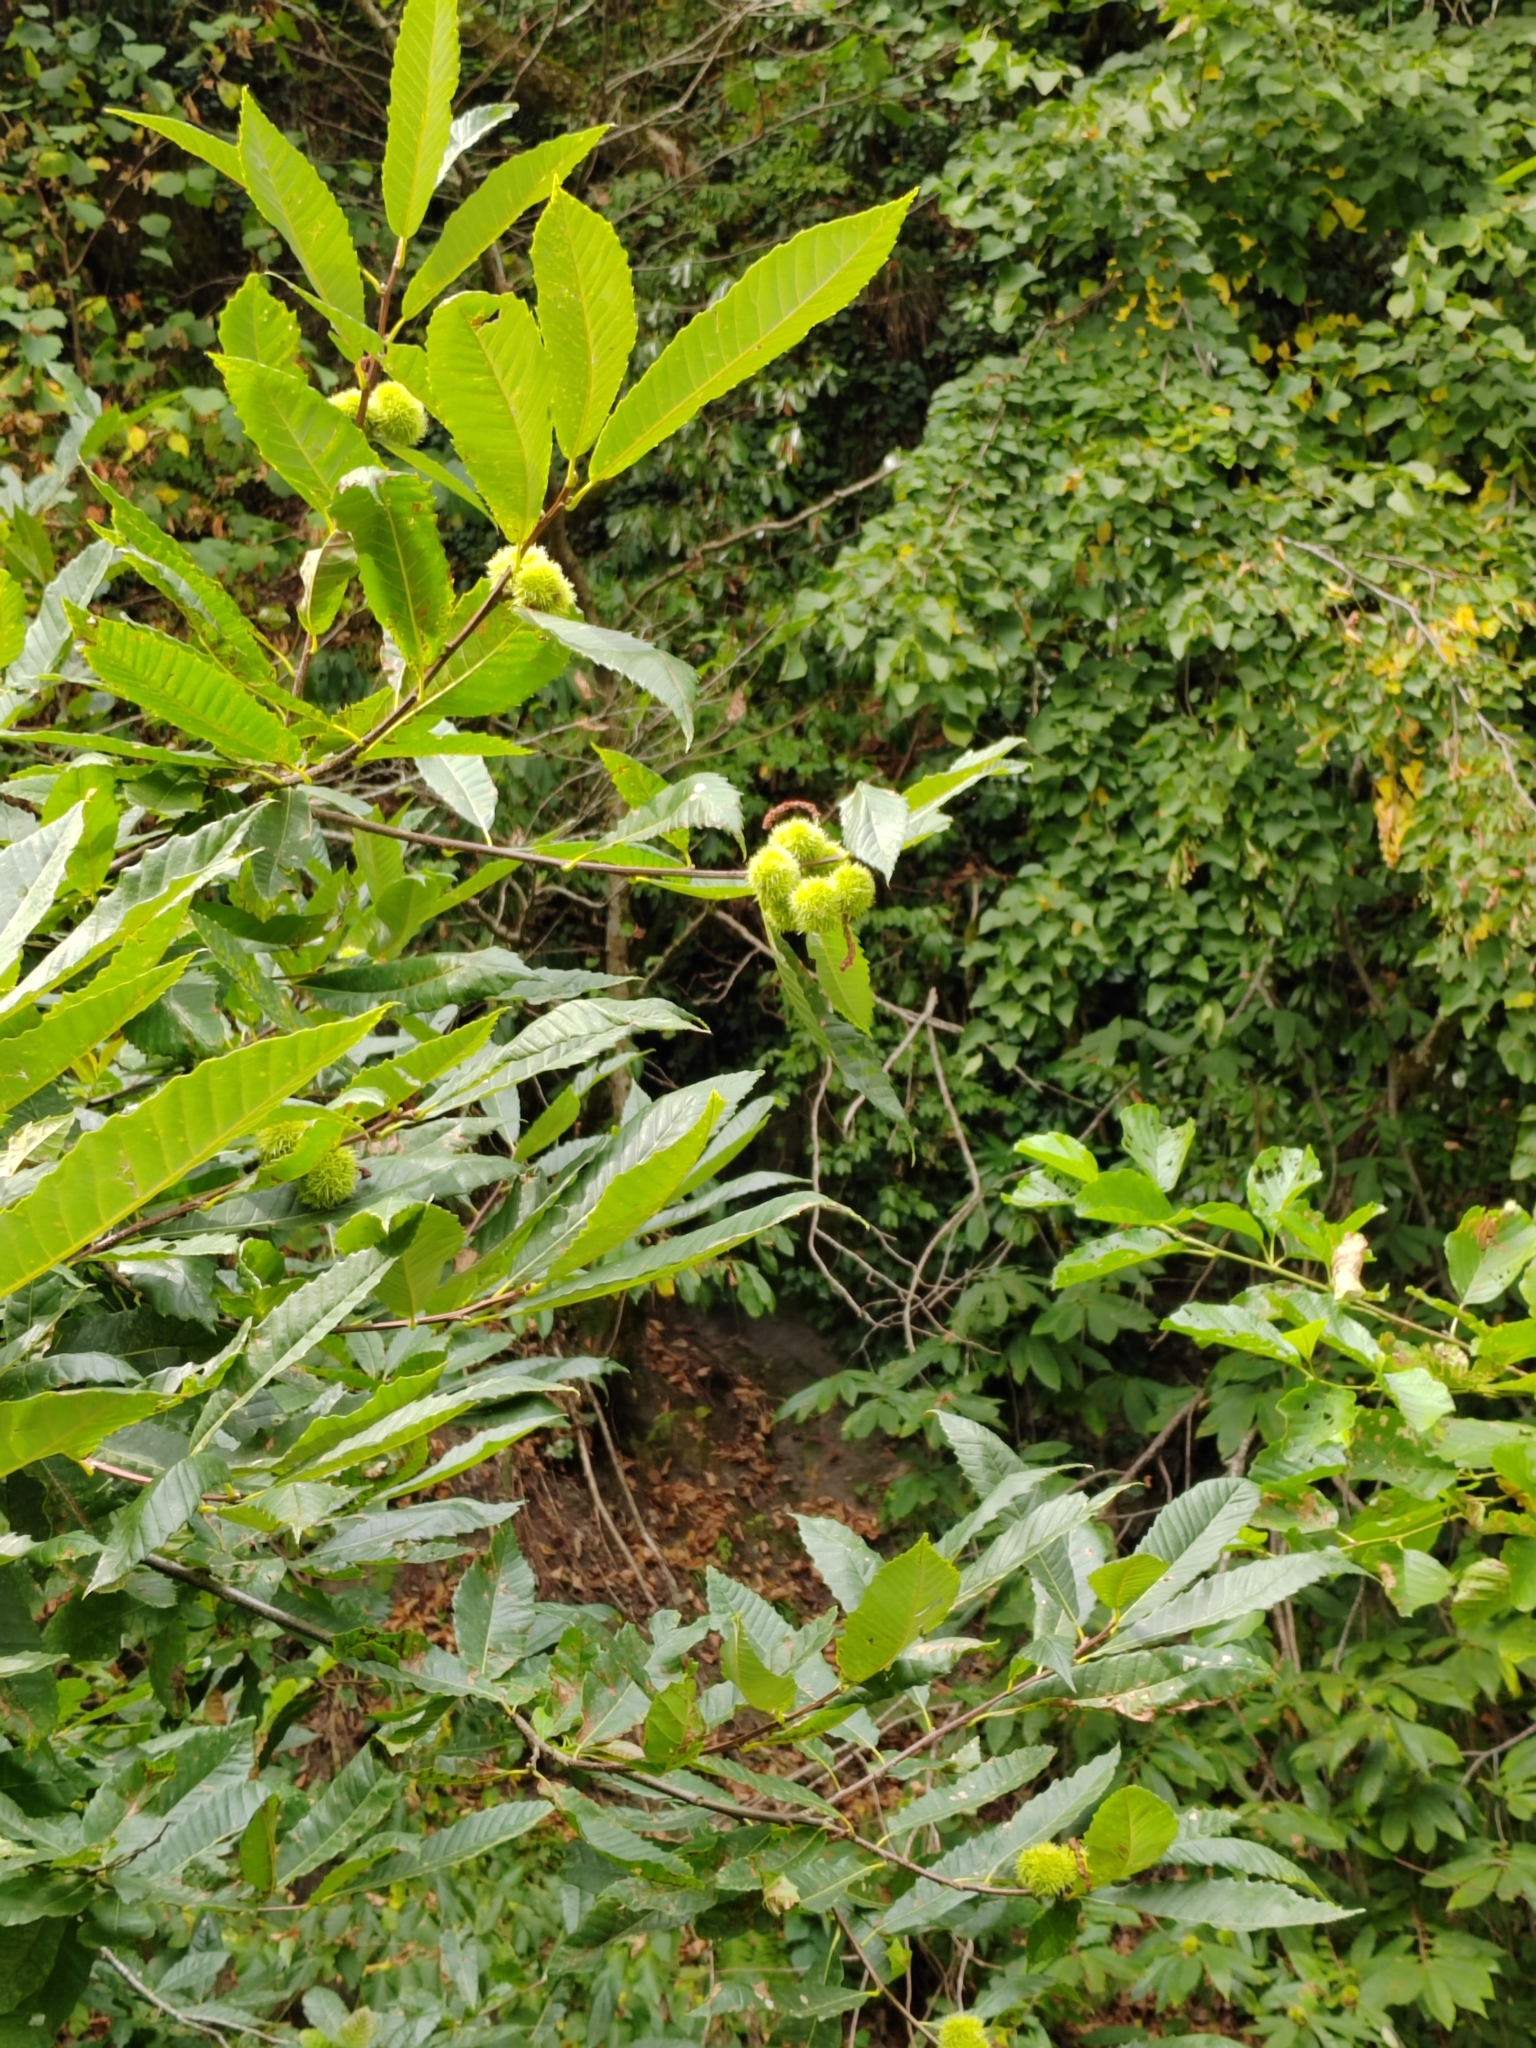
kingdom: Plantae
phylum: Tracheophyta
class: Magnoliopsida
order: Fagales
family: Fagaceae
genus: Castanea
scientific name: Castanea sativa
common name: Sweet chestnut
